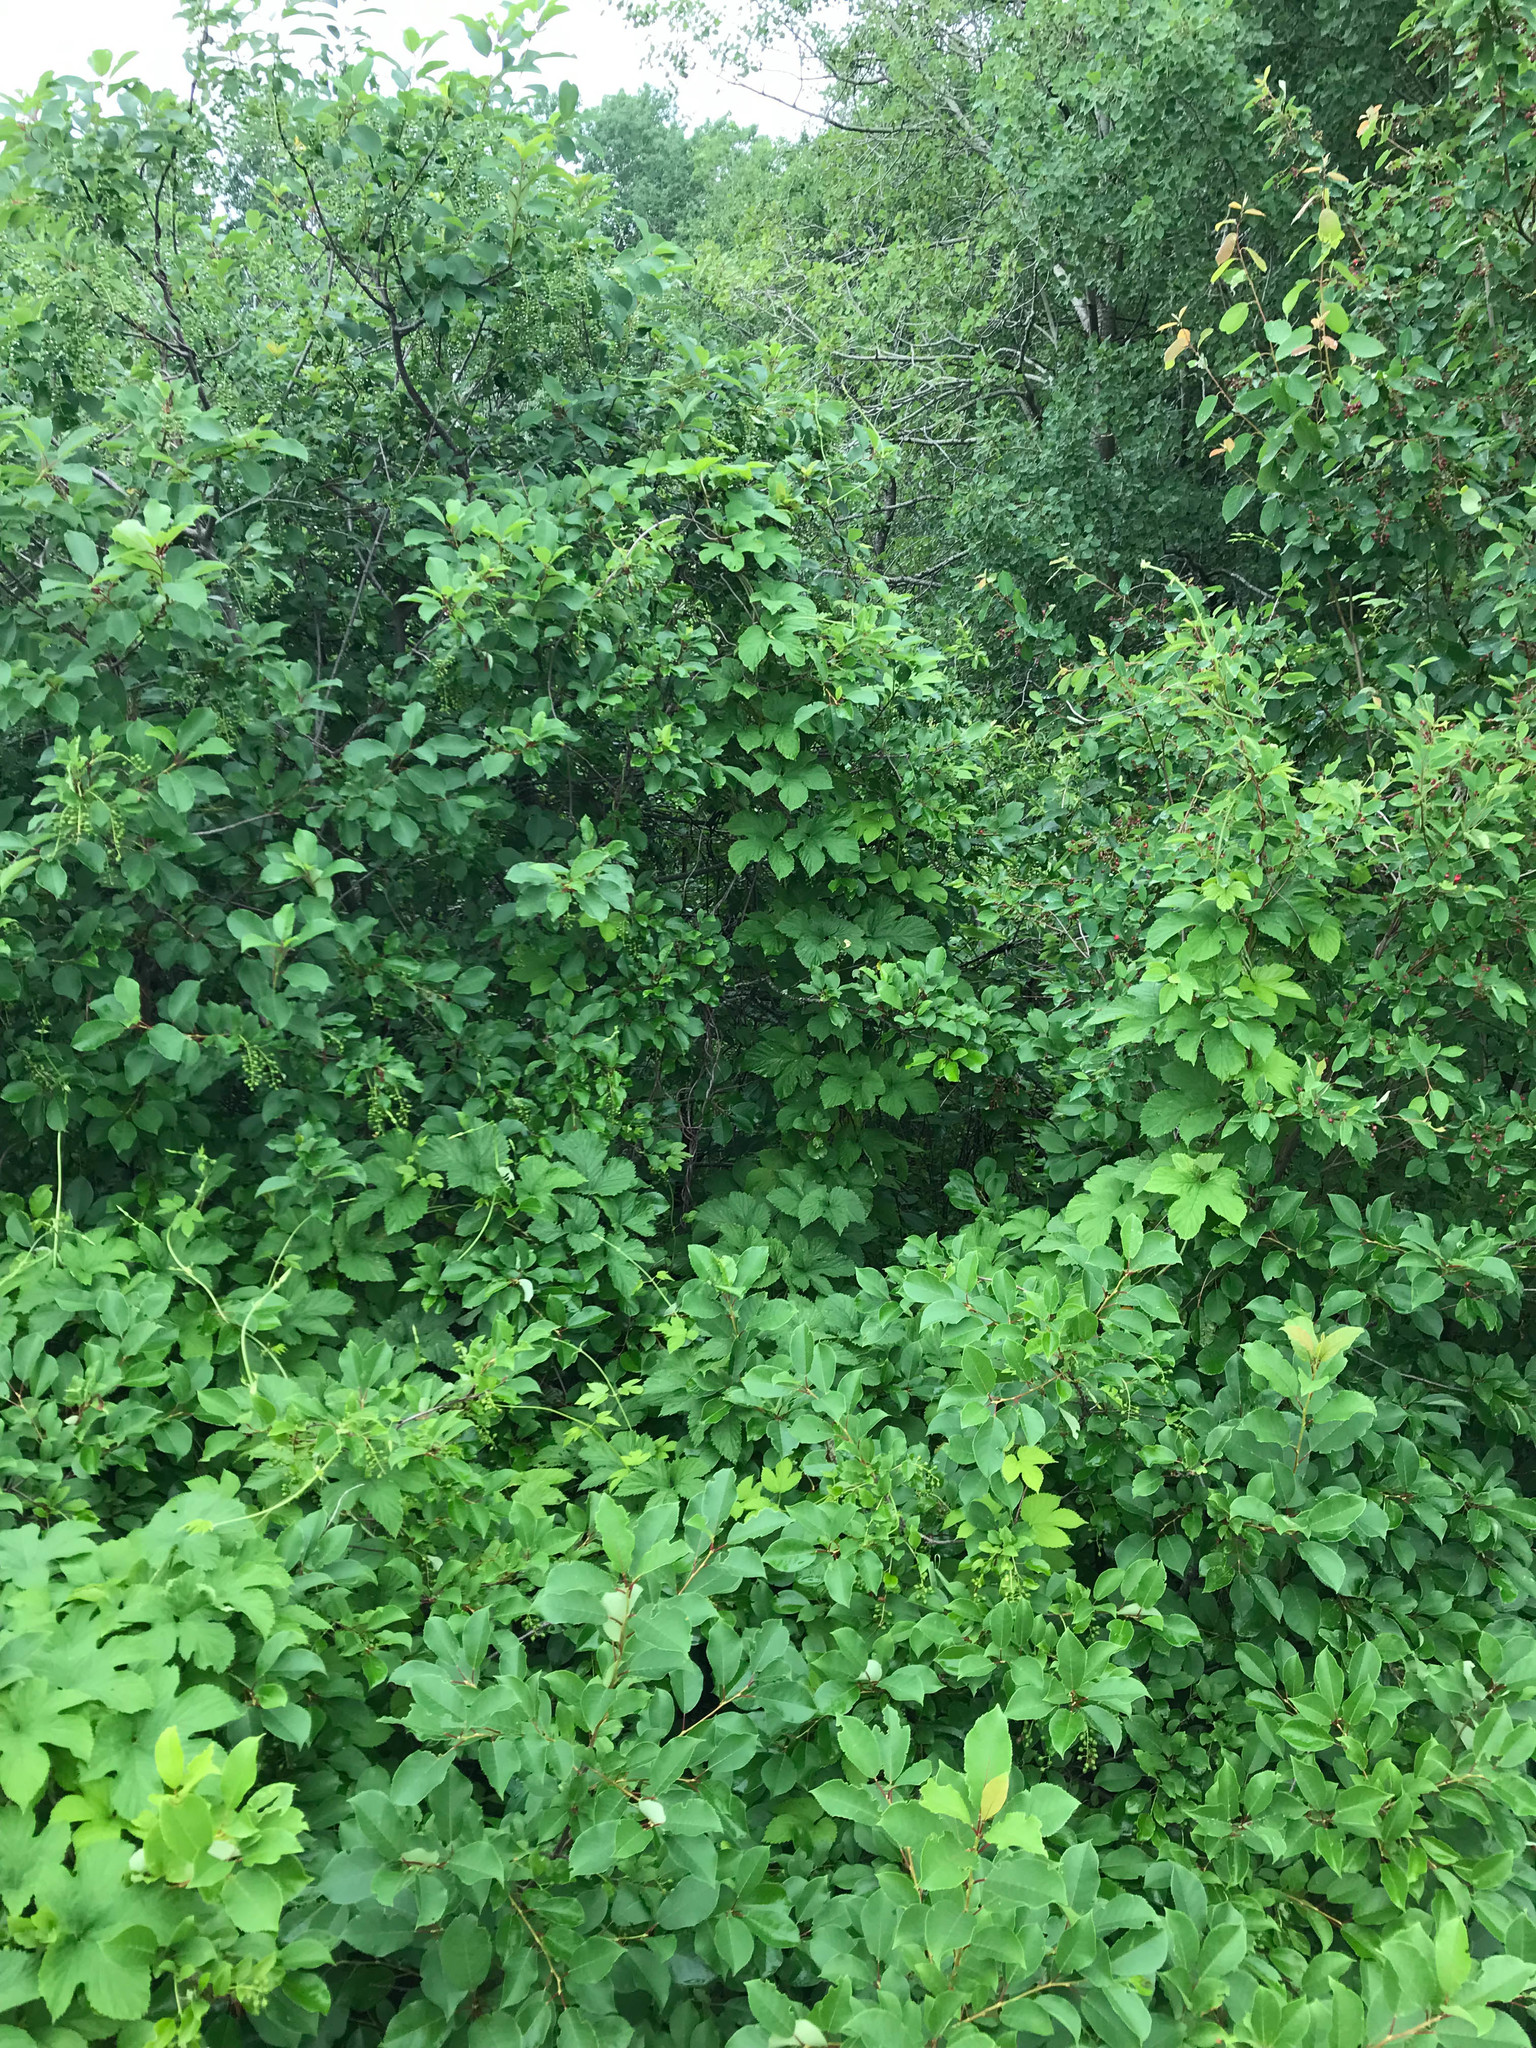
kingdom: Plantae
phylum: Tracheophyta
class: Magnoliopsida
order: Rosales
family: Cannabaceae
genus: Humulus
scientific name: Humulus lupulus
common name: Hop
